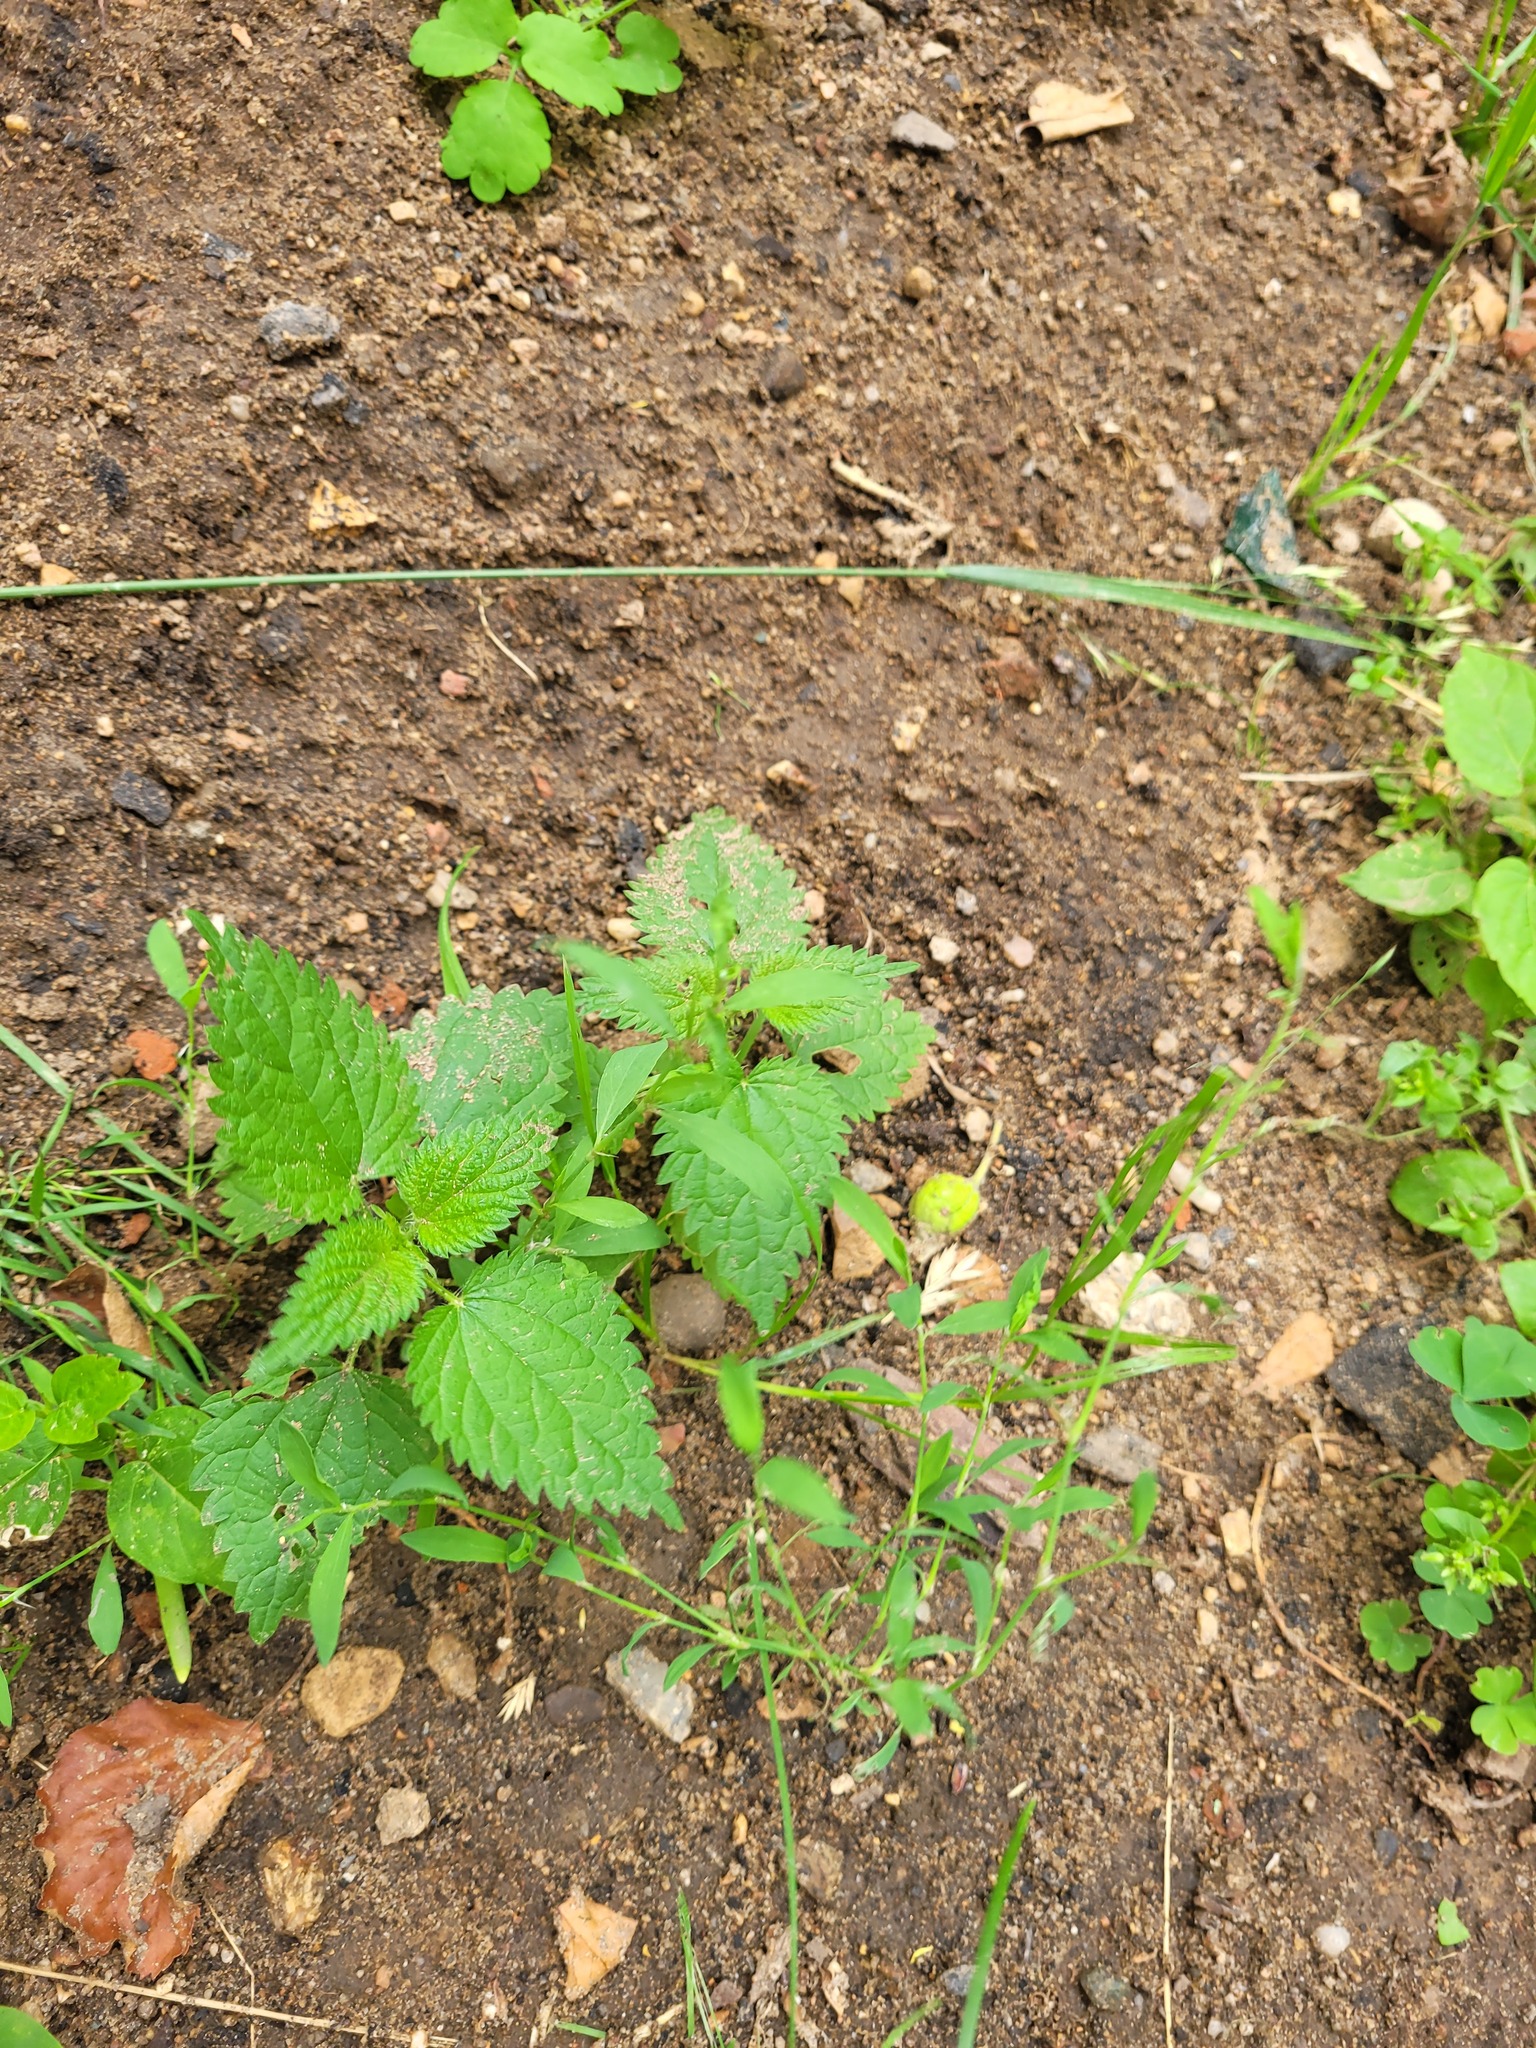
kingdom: Plantae
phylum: Tracheophyta
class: Magnoliopsida
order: Rosales
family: Urticaceae
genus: Urtica
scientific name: Urtica dioica
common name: Common nettle
